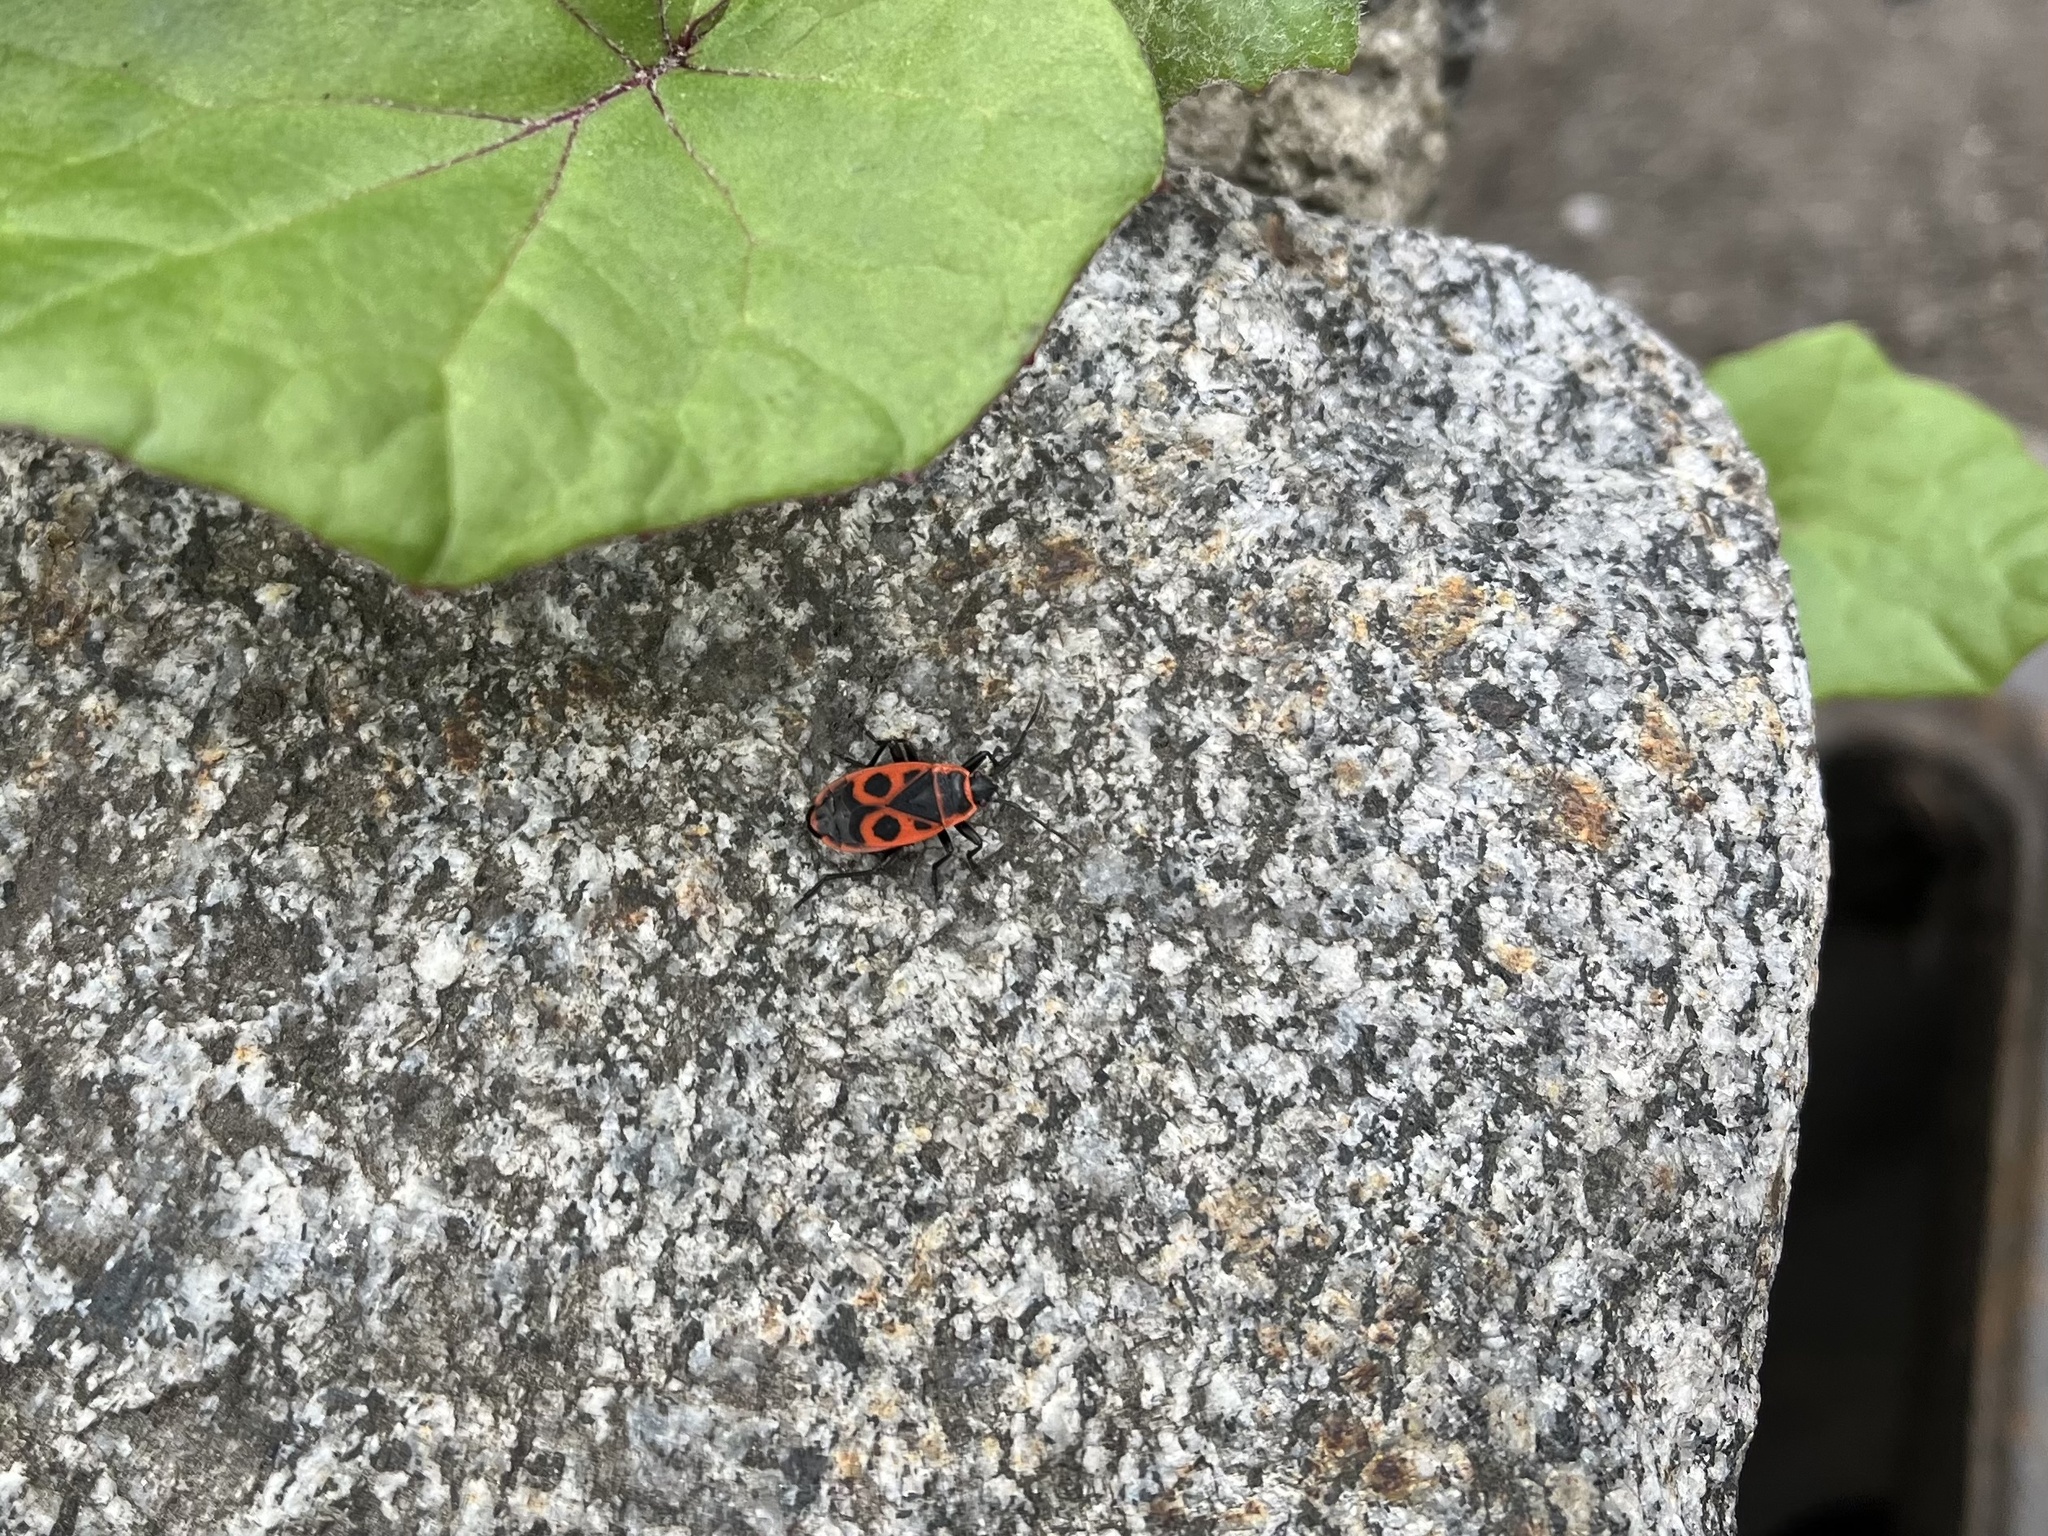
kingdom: Animalia
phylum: Arthropoda
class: Insecta
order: Hemiptera
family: Pyrrhocoridae
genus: Pyrrhocoris
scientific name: Pyrrhocoris apterus
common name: Firebug
